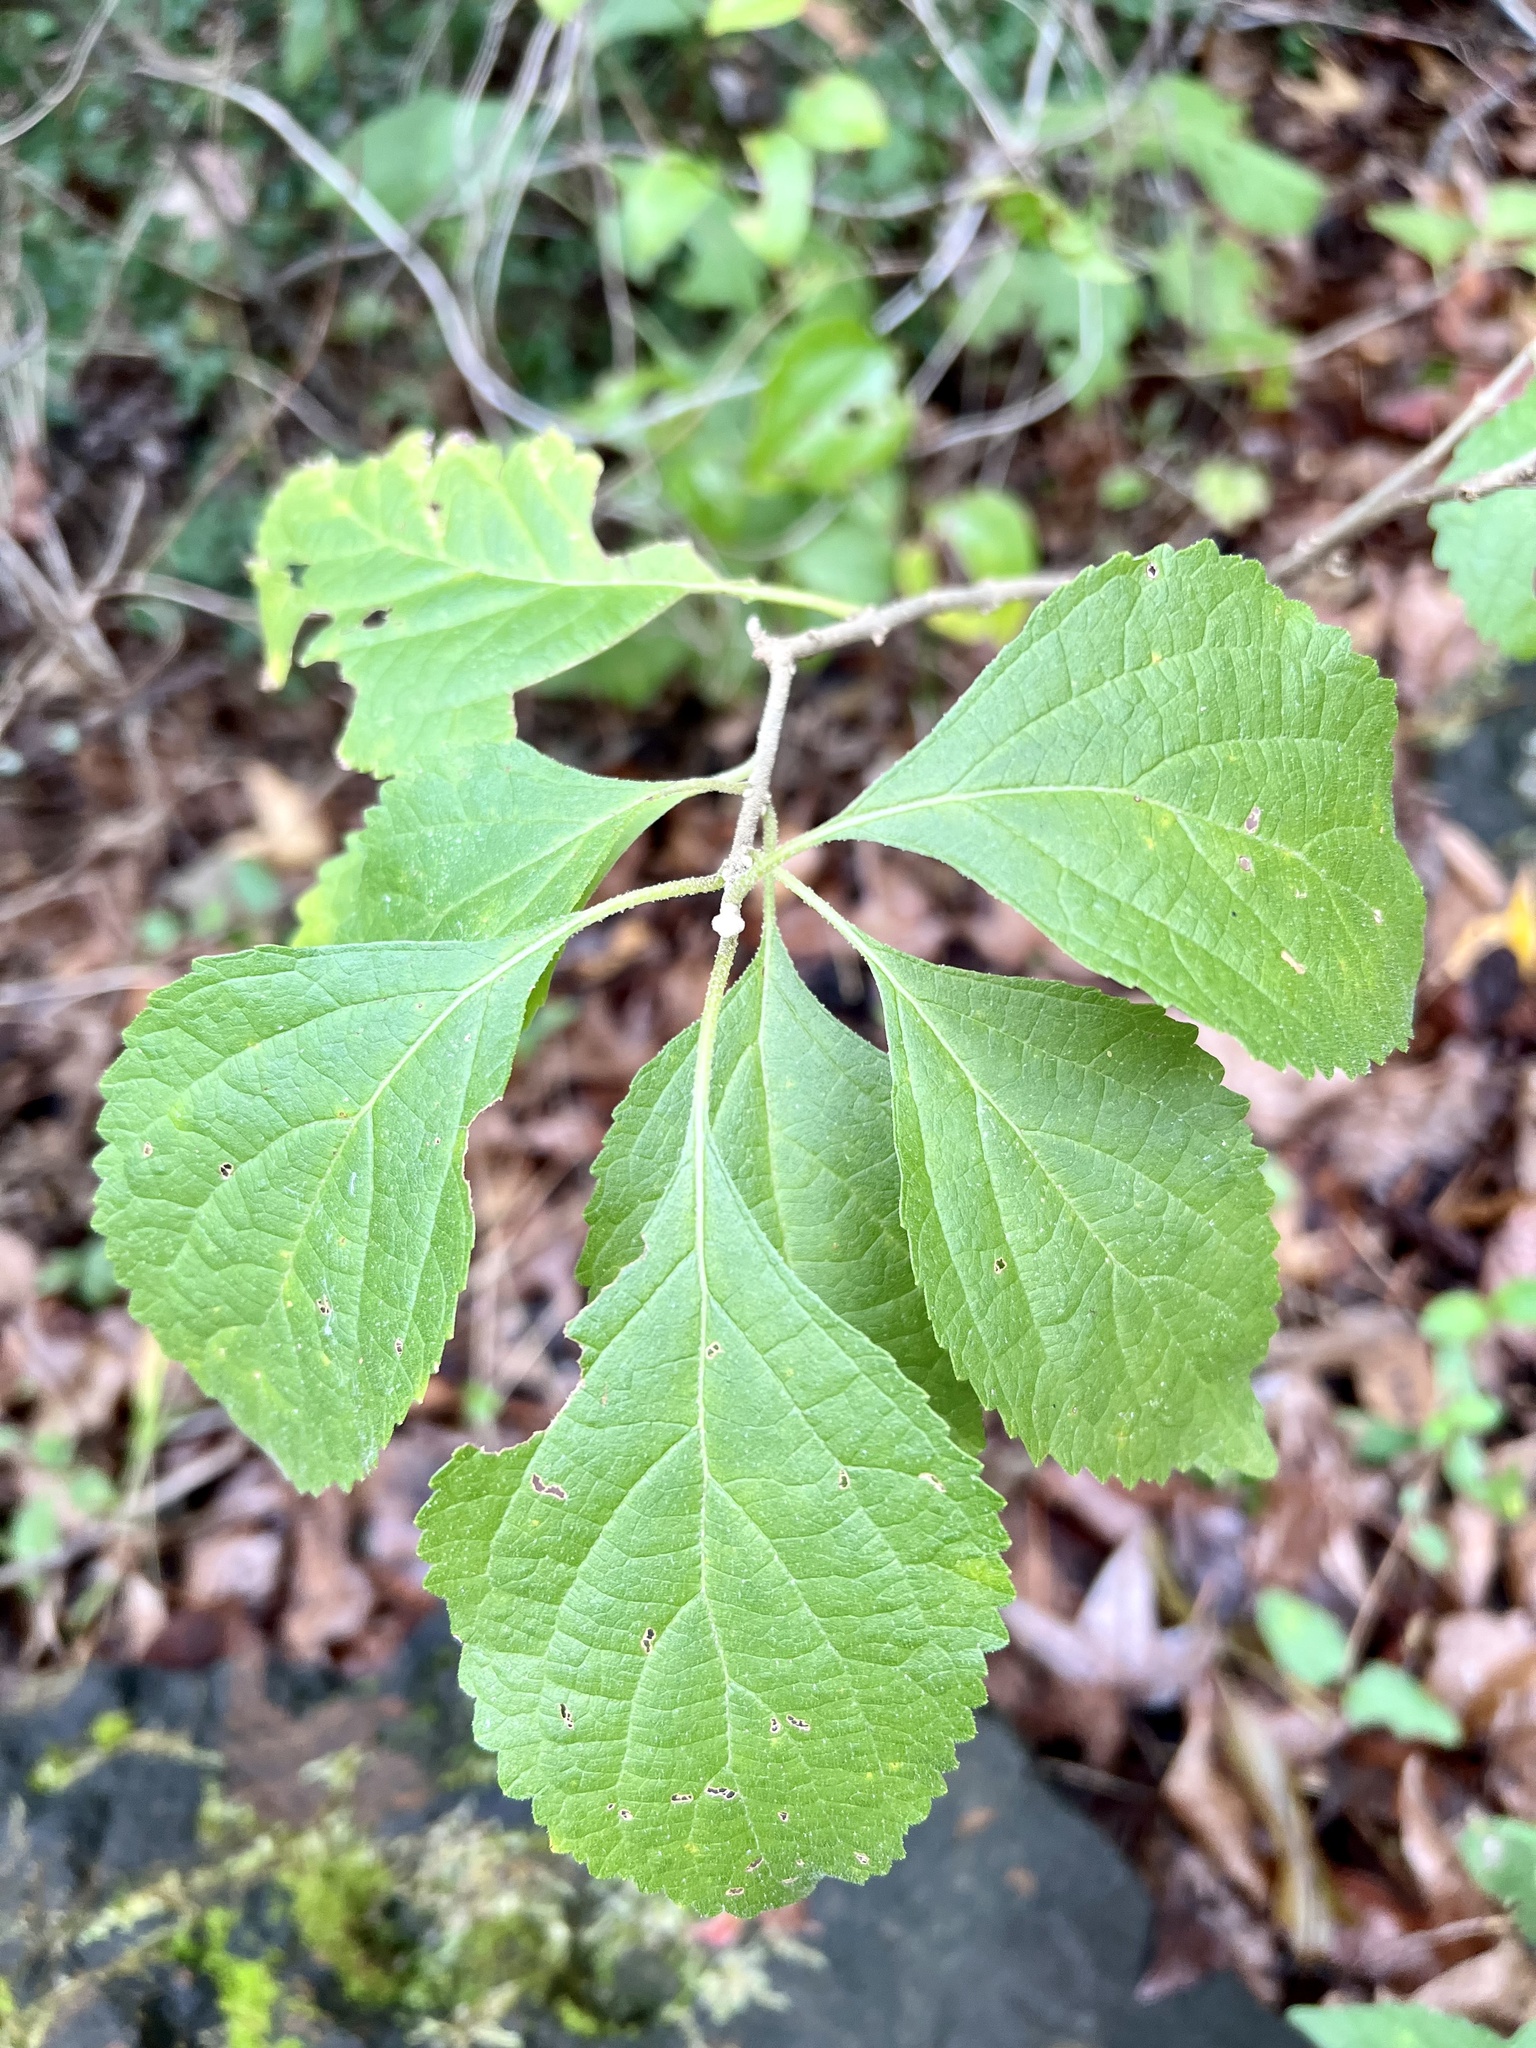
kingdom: Plantae
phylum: Tracheophyta
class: Magnoliopsida
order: Lamiales
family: Lamiaceae
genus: Callicarpa
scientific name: Callicarpa americana
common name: American beautyberry
